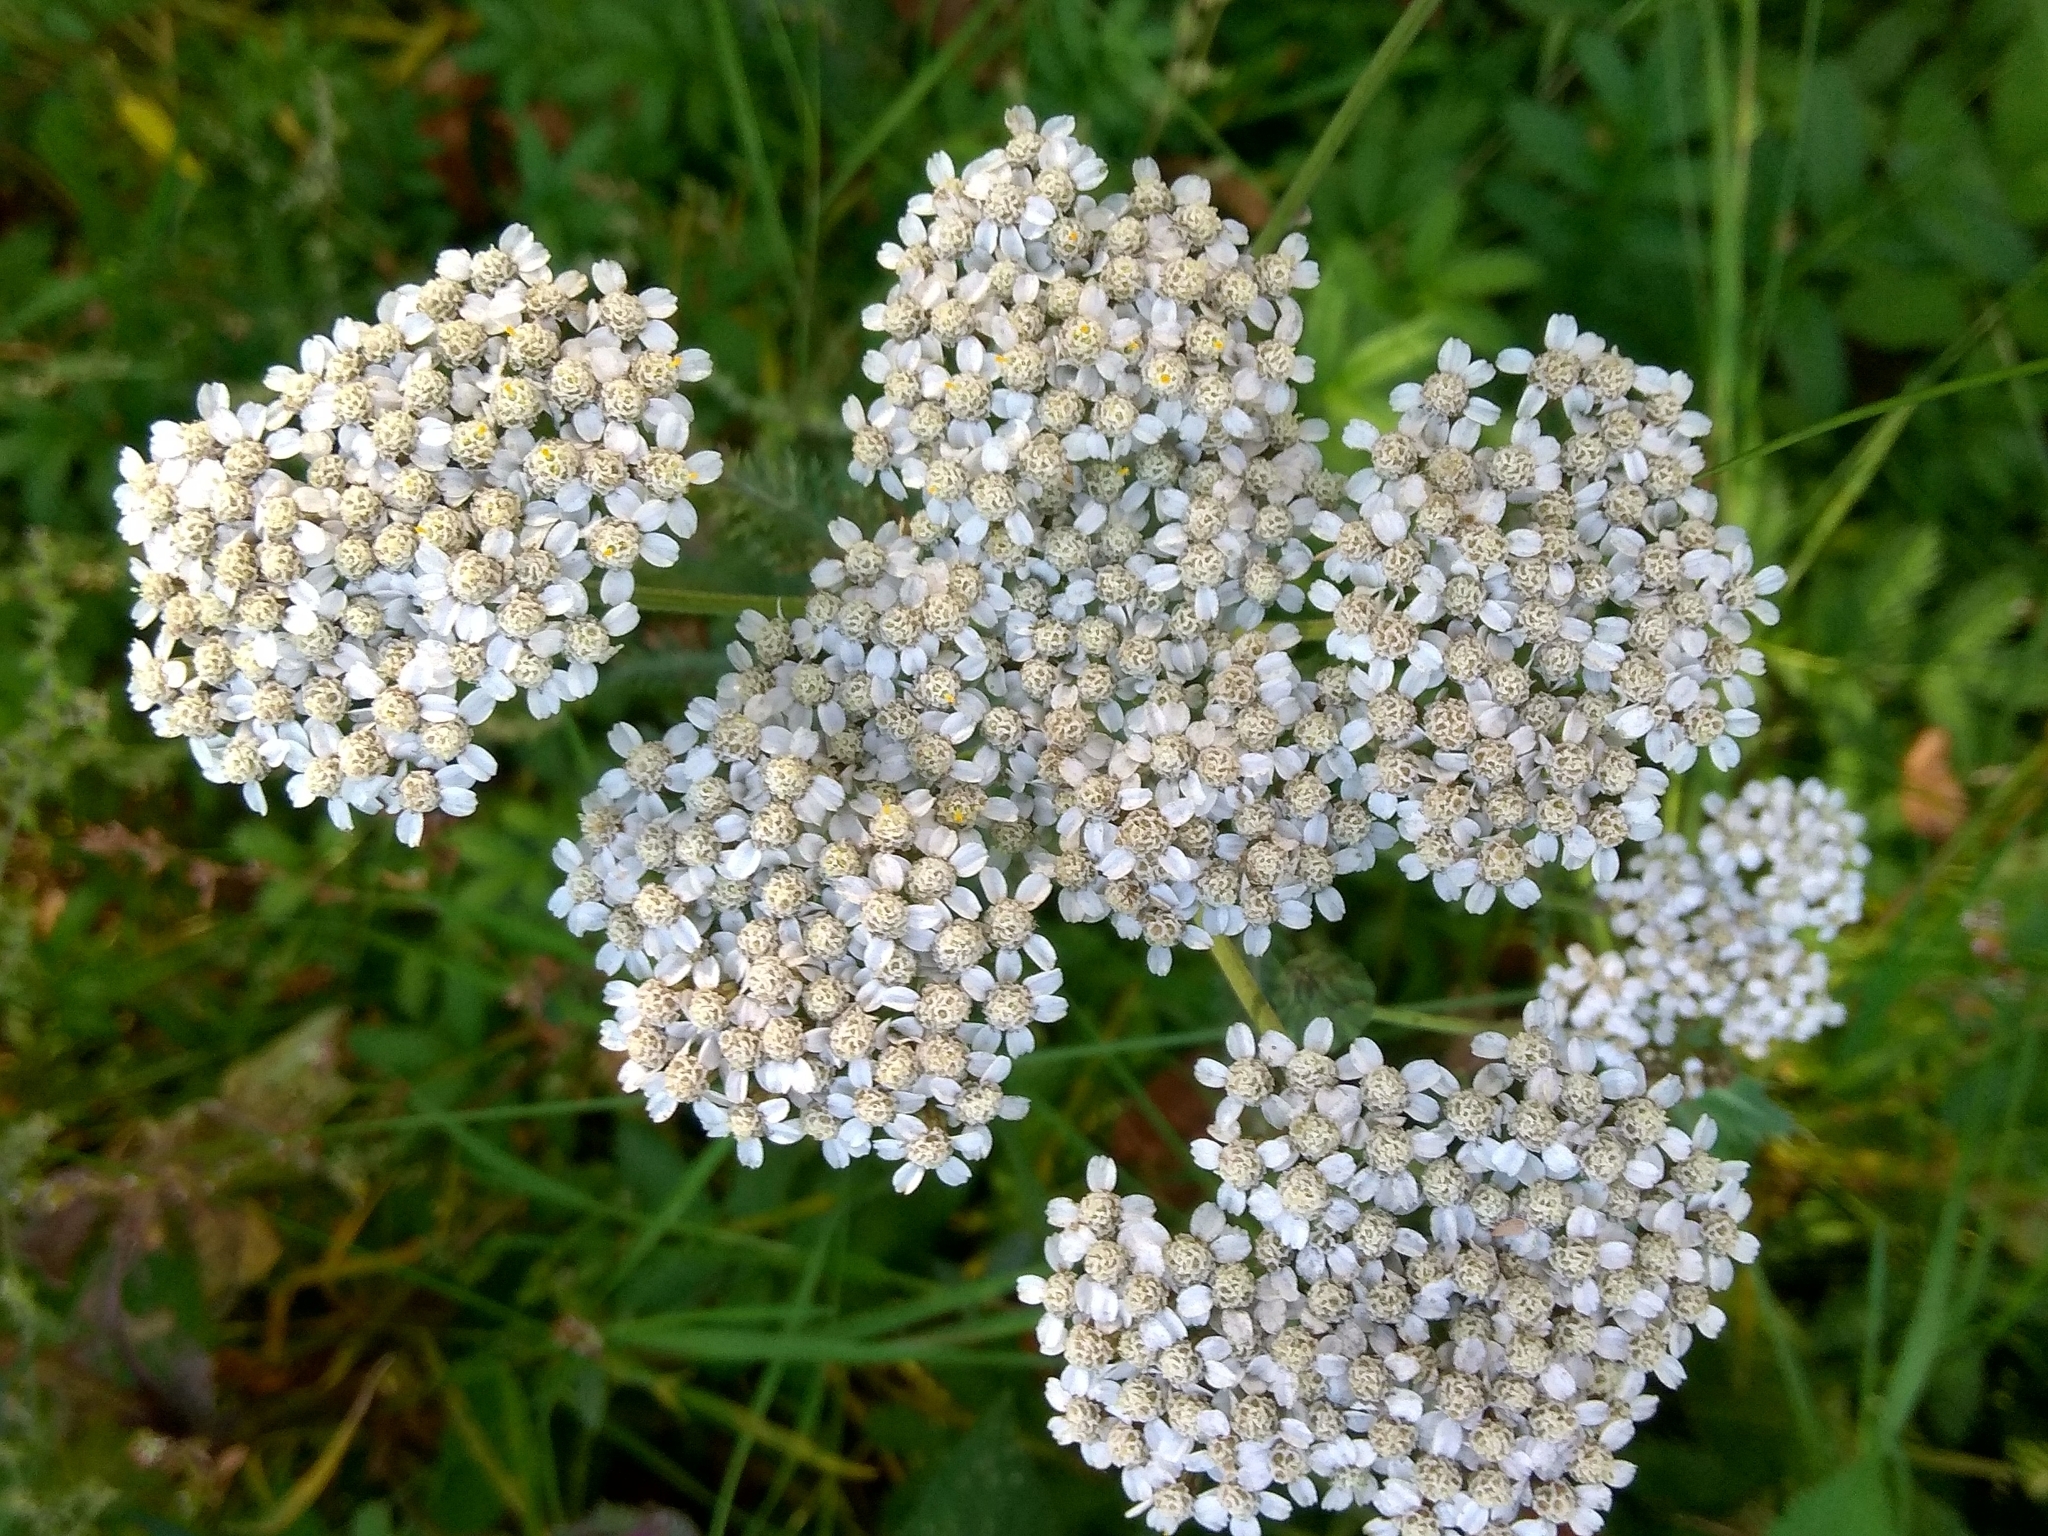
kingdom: Plantae
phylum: Tracheophyta
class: Magnoliopsida
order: Asterales
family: Asteraceae
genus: Achillea
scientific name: Achillea millefolium
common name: Yarrow
